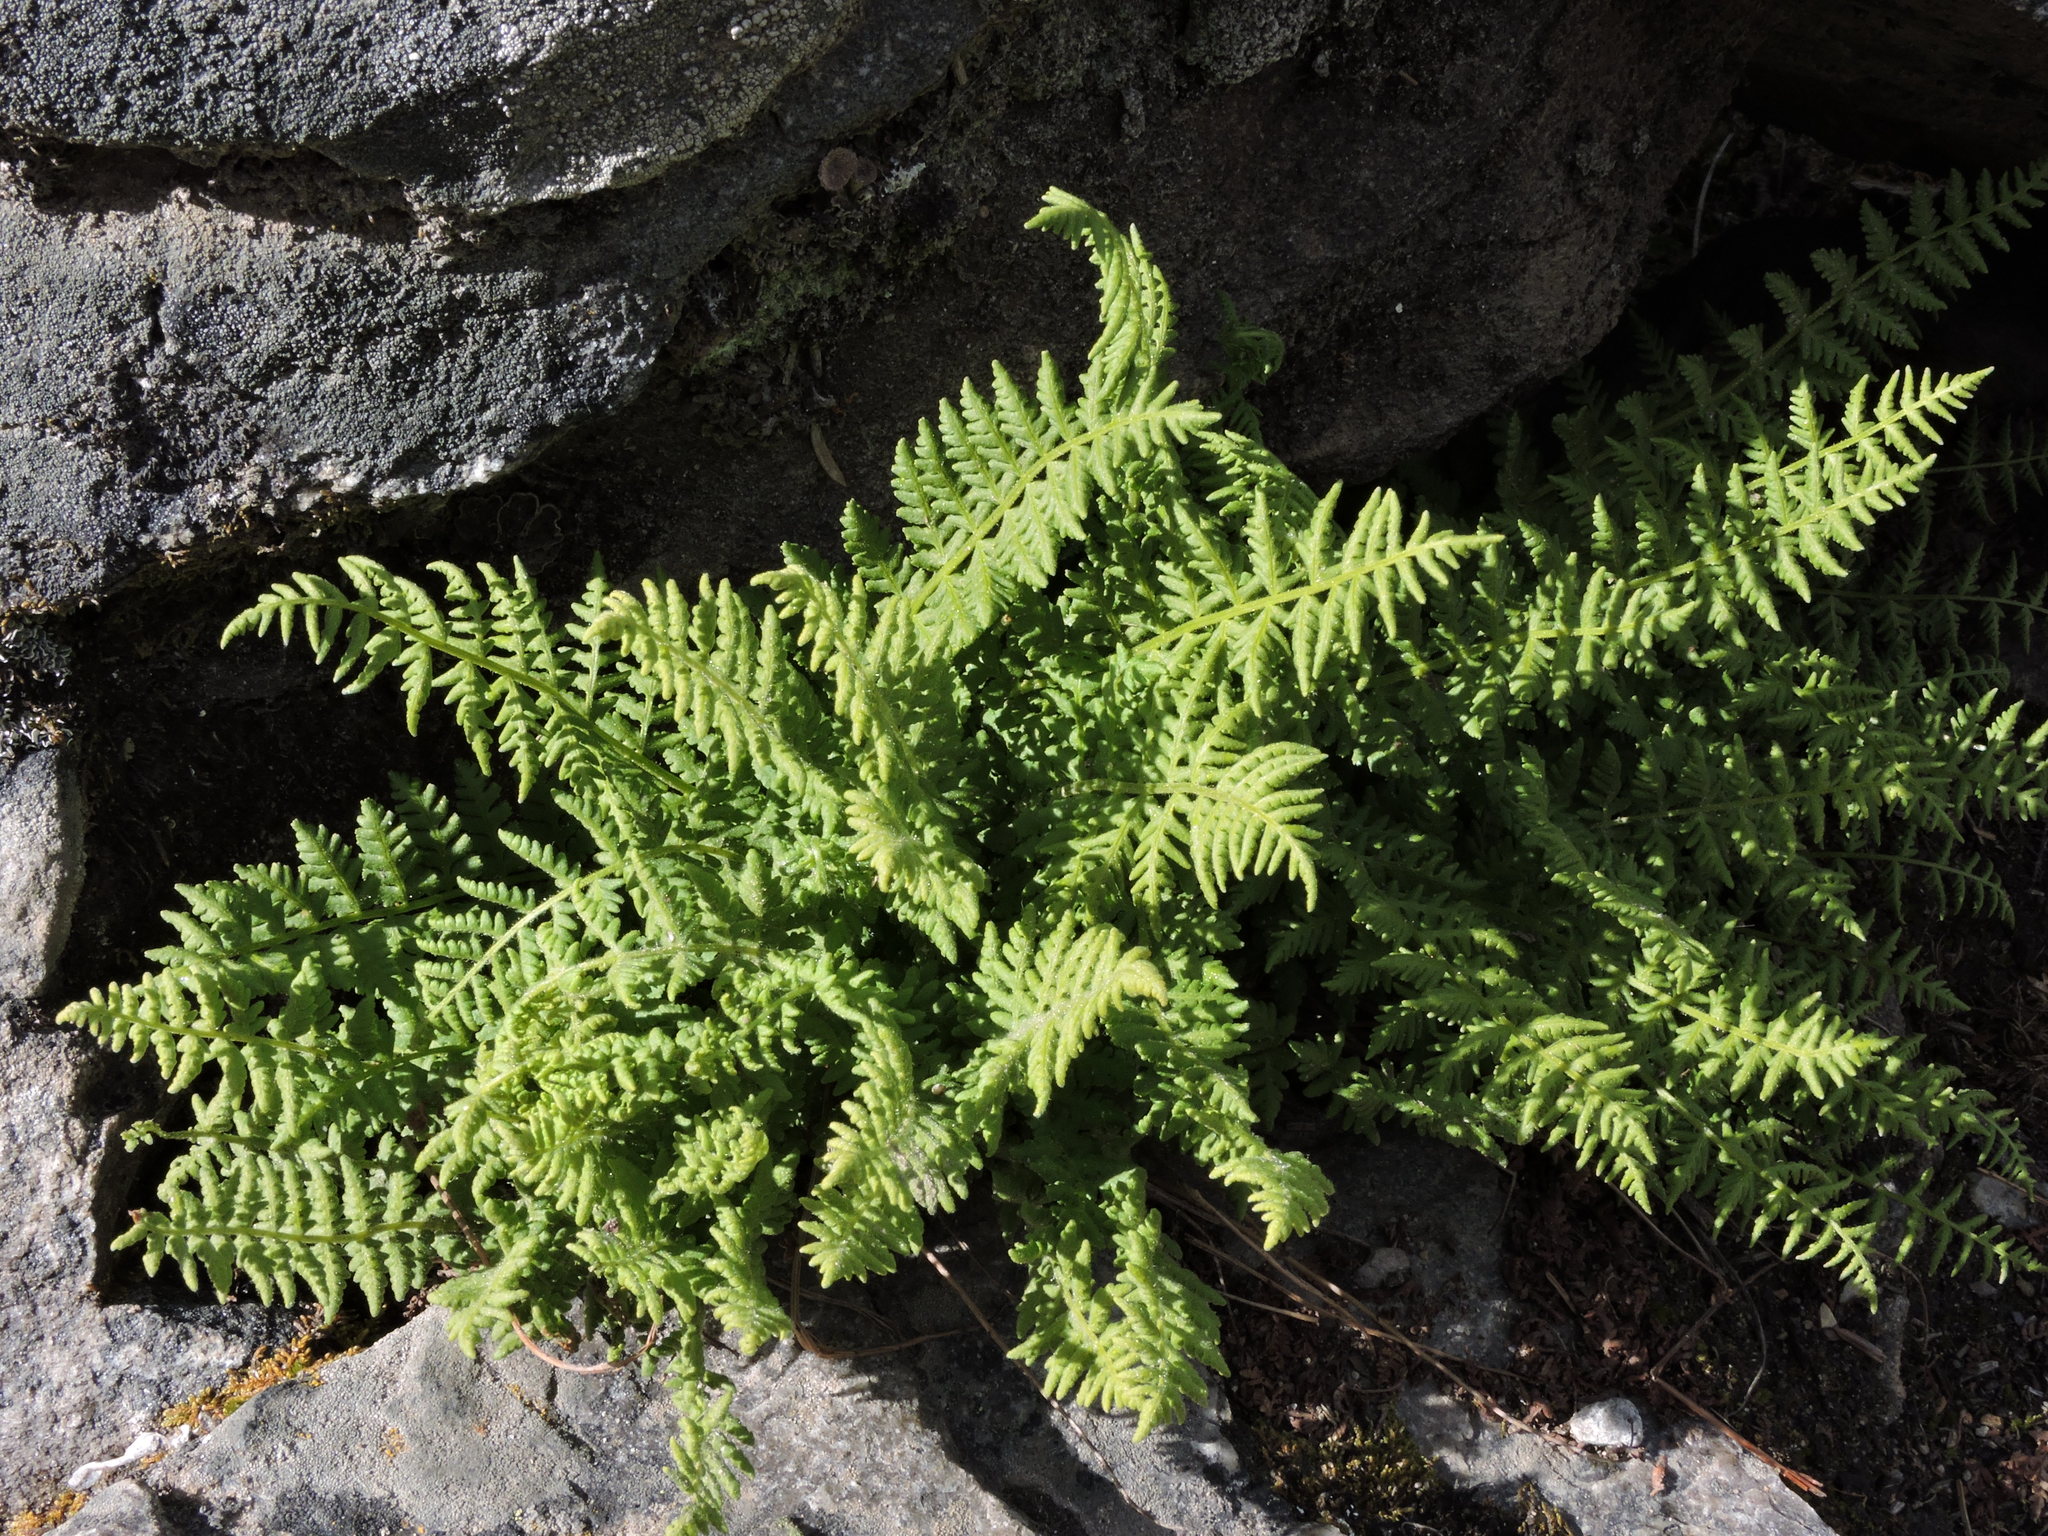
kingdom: Plantae
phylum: Tracheophyta
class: Polypodiopsida
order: Polypodiales
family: Woodsiaceae
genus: Physematium
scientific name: Physematium scopulinum
